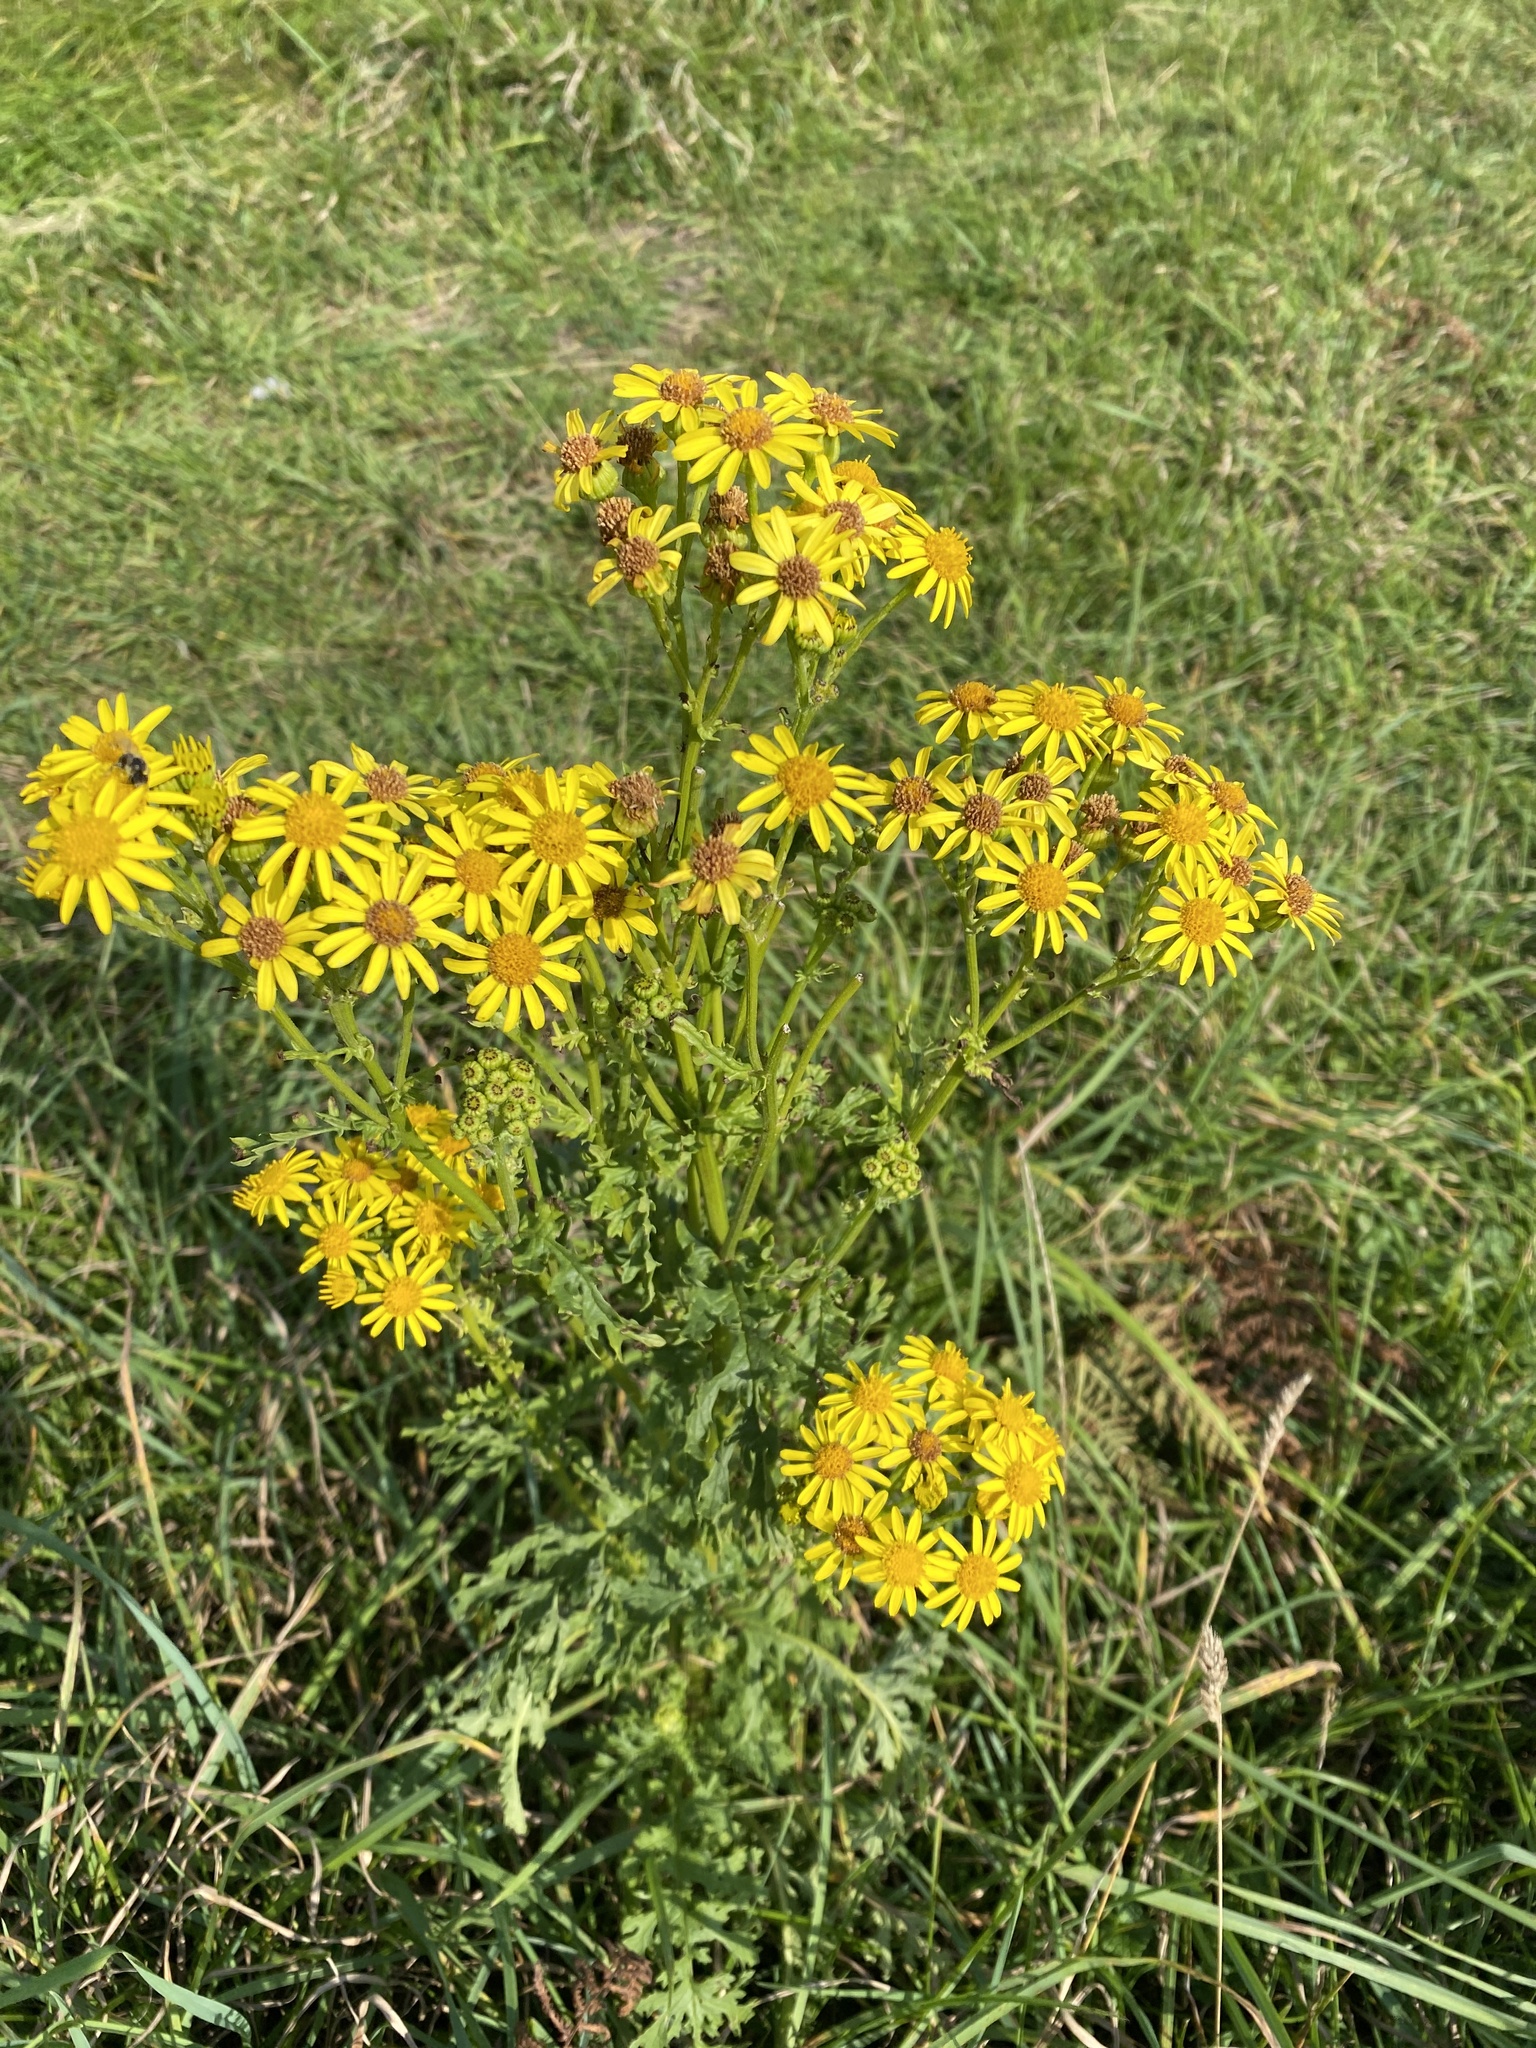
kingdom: Plantae
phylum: Tracheophyta
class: Magnoliopsida
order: Asterales
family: Asteraceae
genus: Jacobaea
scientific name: Jacobaea vulgaris
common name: Stinking willie
